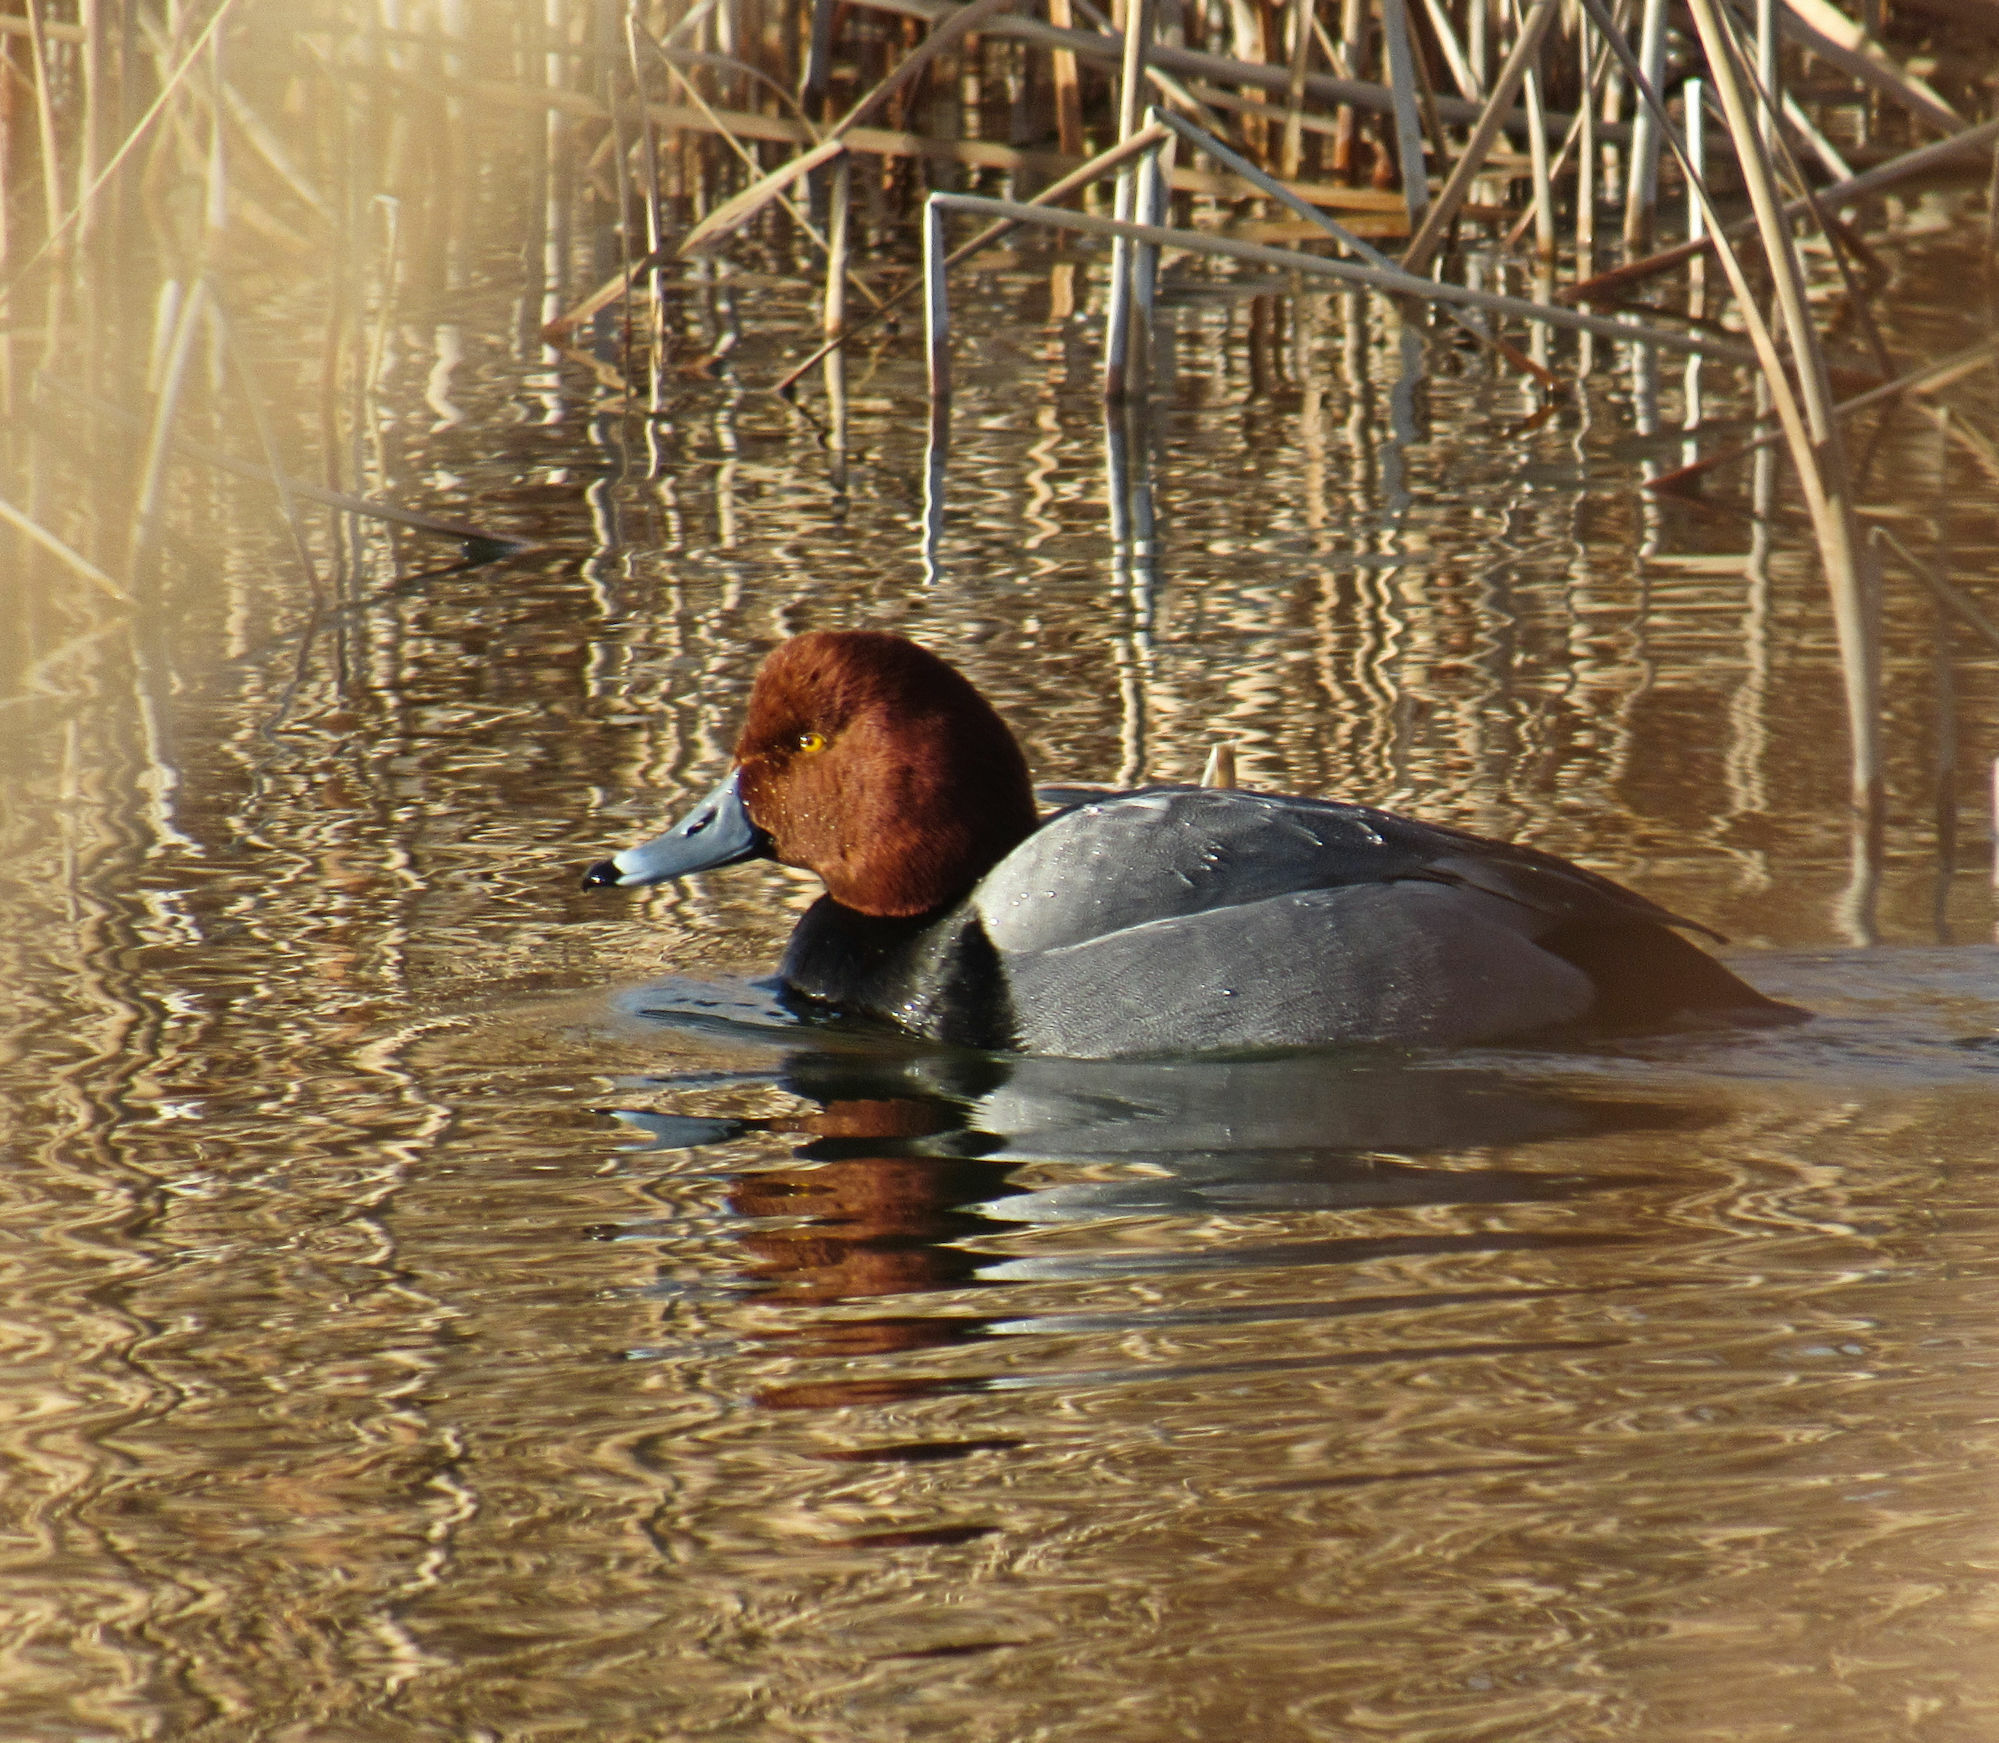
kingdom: Animalia
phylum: Chordata
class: Aves
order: Anseriformes
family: Anatidae
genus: Aythya
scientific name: Aythya americana
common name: Redhead
